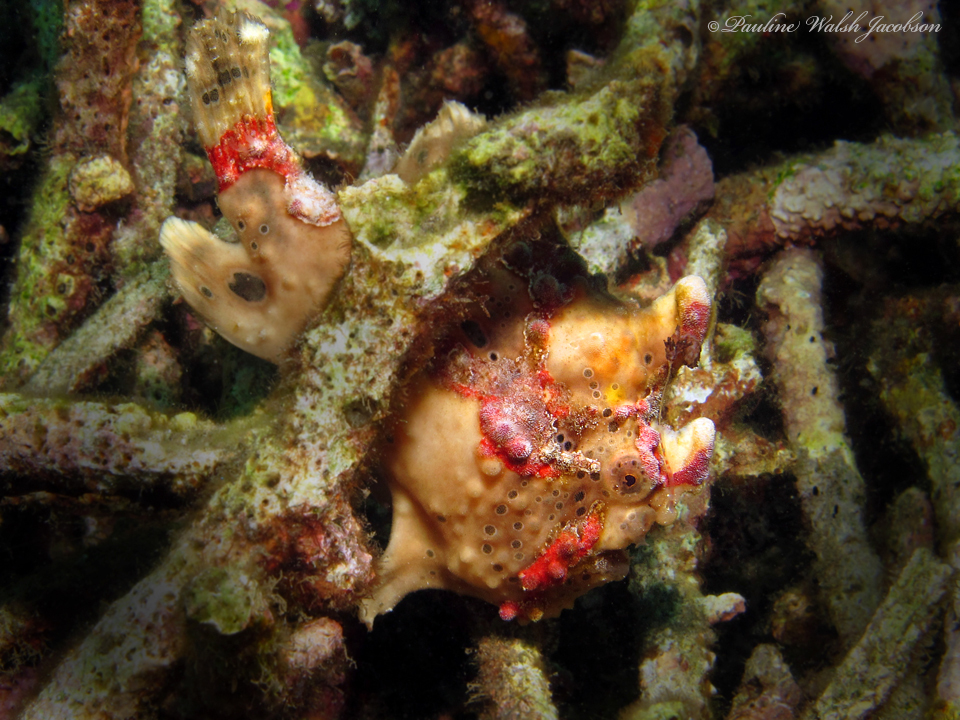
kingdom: Animalia
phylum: Chordata
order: Lophiiformes
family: Antennariidae
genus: Antennarius
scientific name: Antennarius maculatus
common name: Warty frogfish
